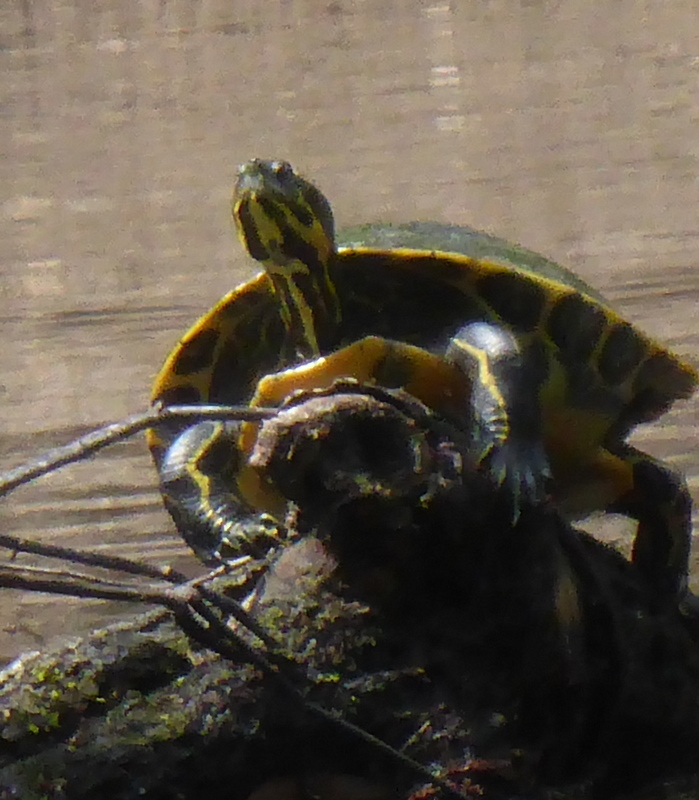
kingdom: Animalia
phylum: Chordata
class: Testudines
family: Emydidae
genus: Pseudemys
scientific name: Pseudemys concinna
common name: Eastern river cooter
